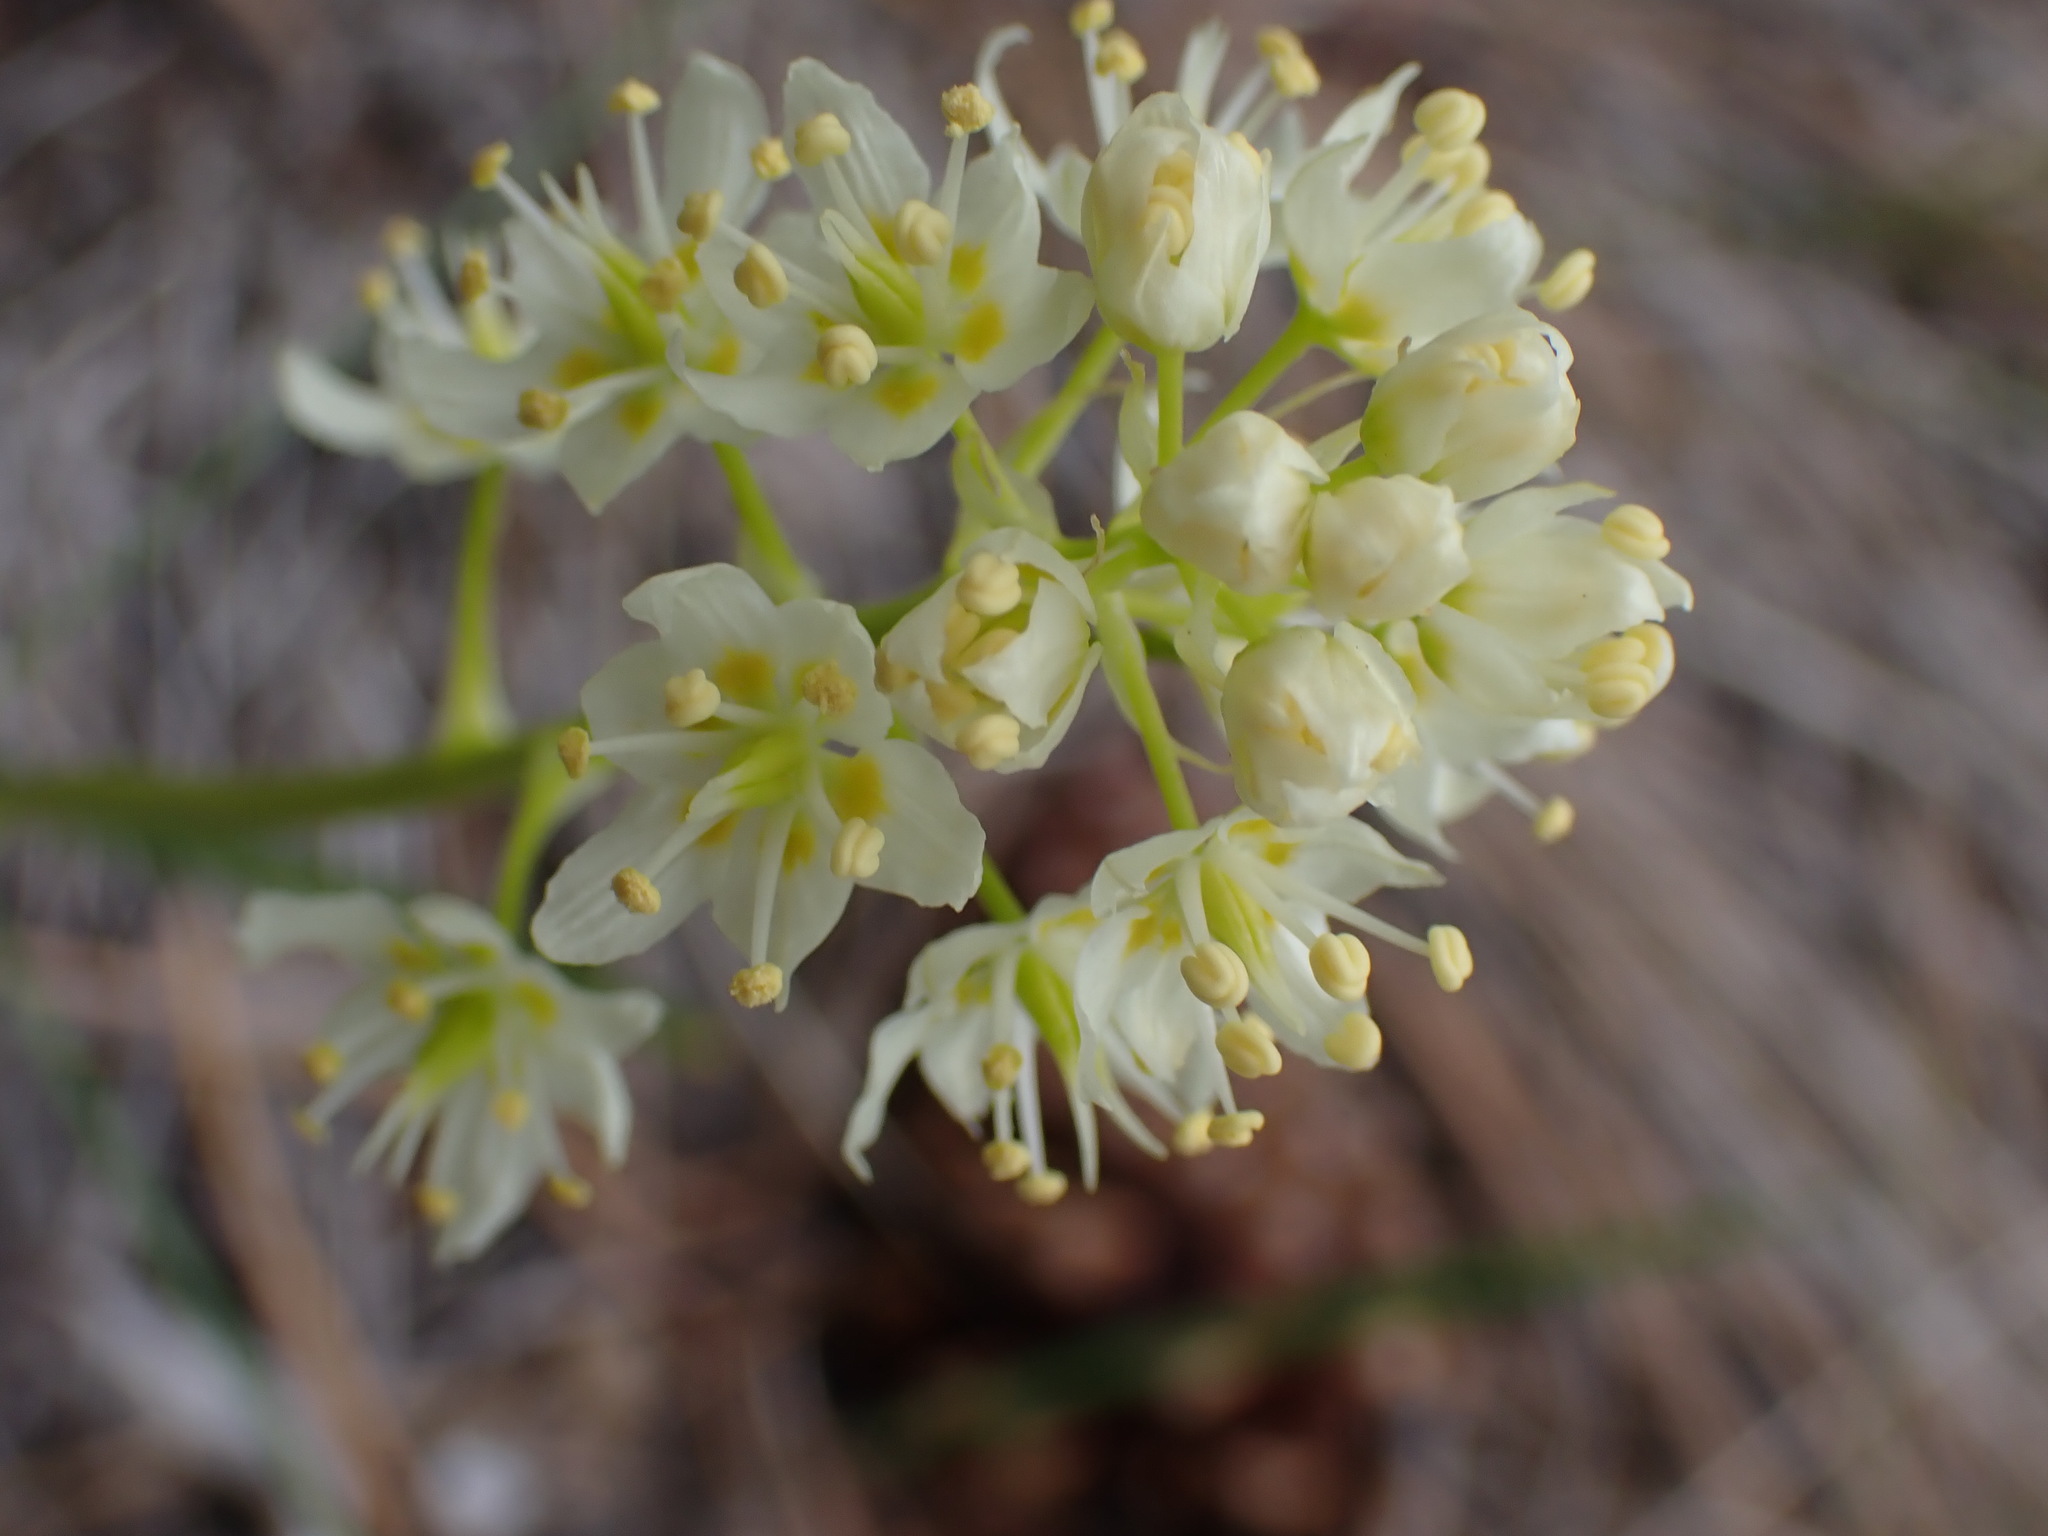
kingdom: Plantae
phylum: Tracheophyta
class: Liliopsida
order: Liliales
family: Melanthiaceae
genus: Toxicoscordion
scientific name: Toxicoscordion venenosum
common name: Meadow death camas
